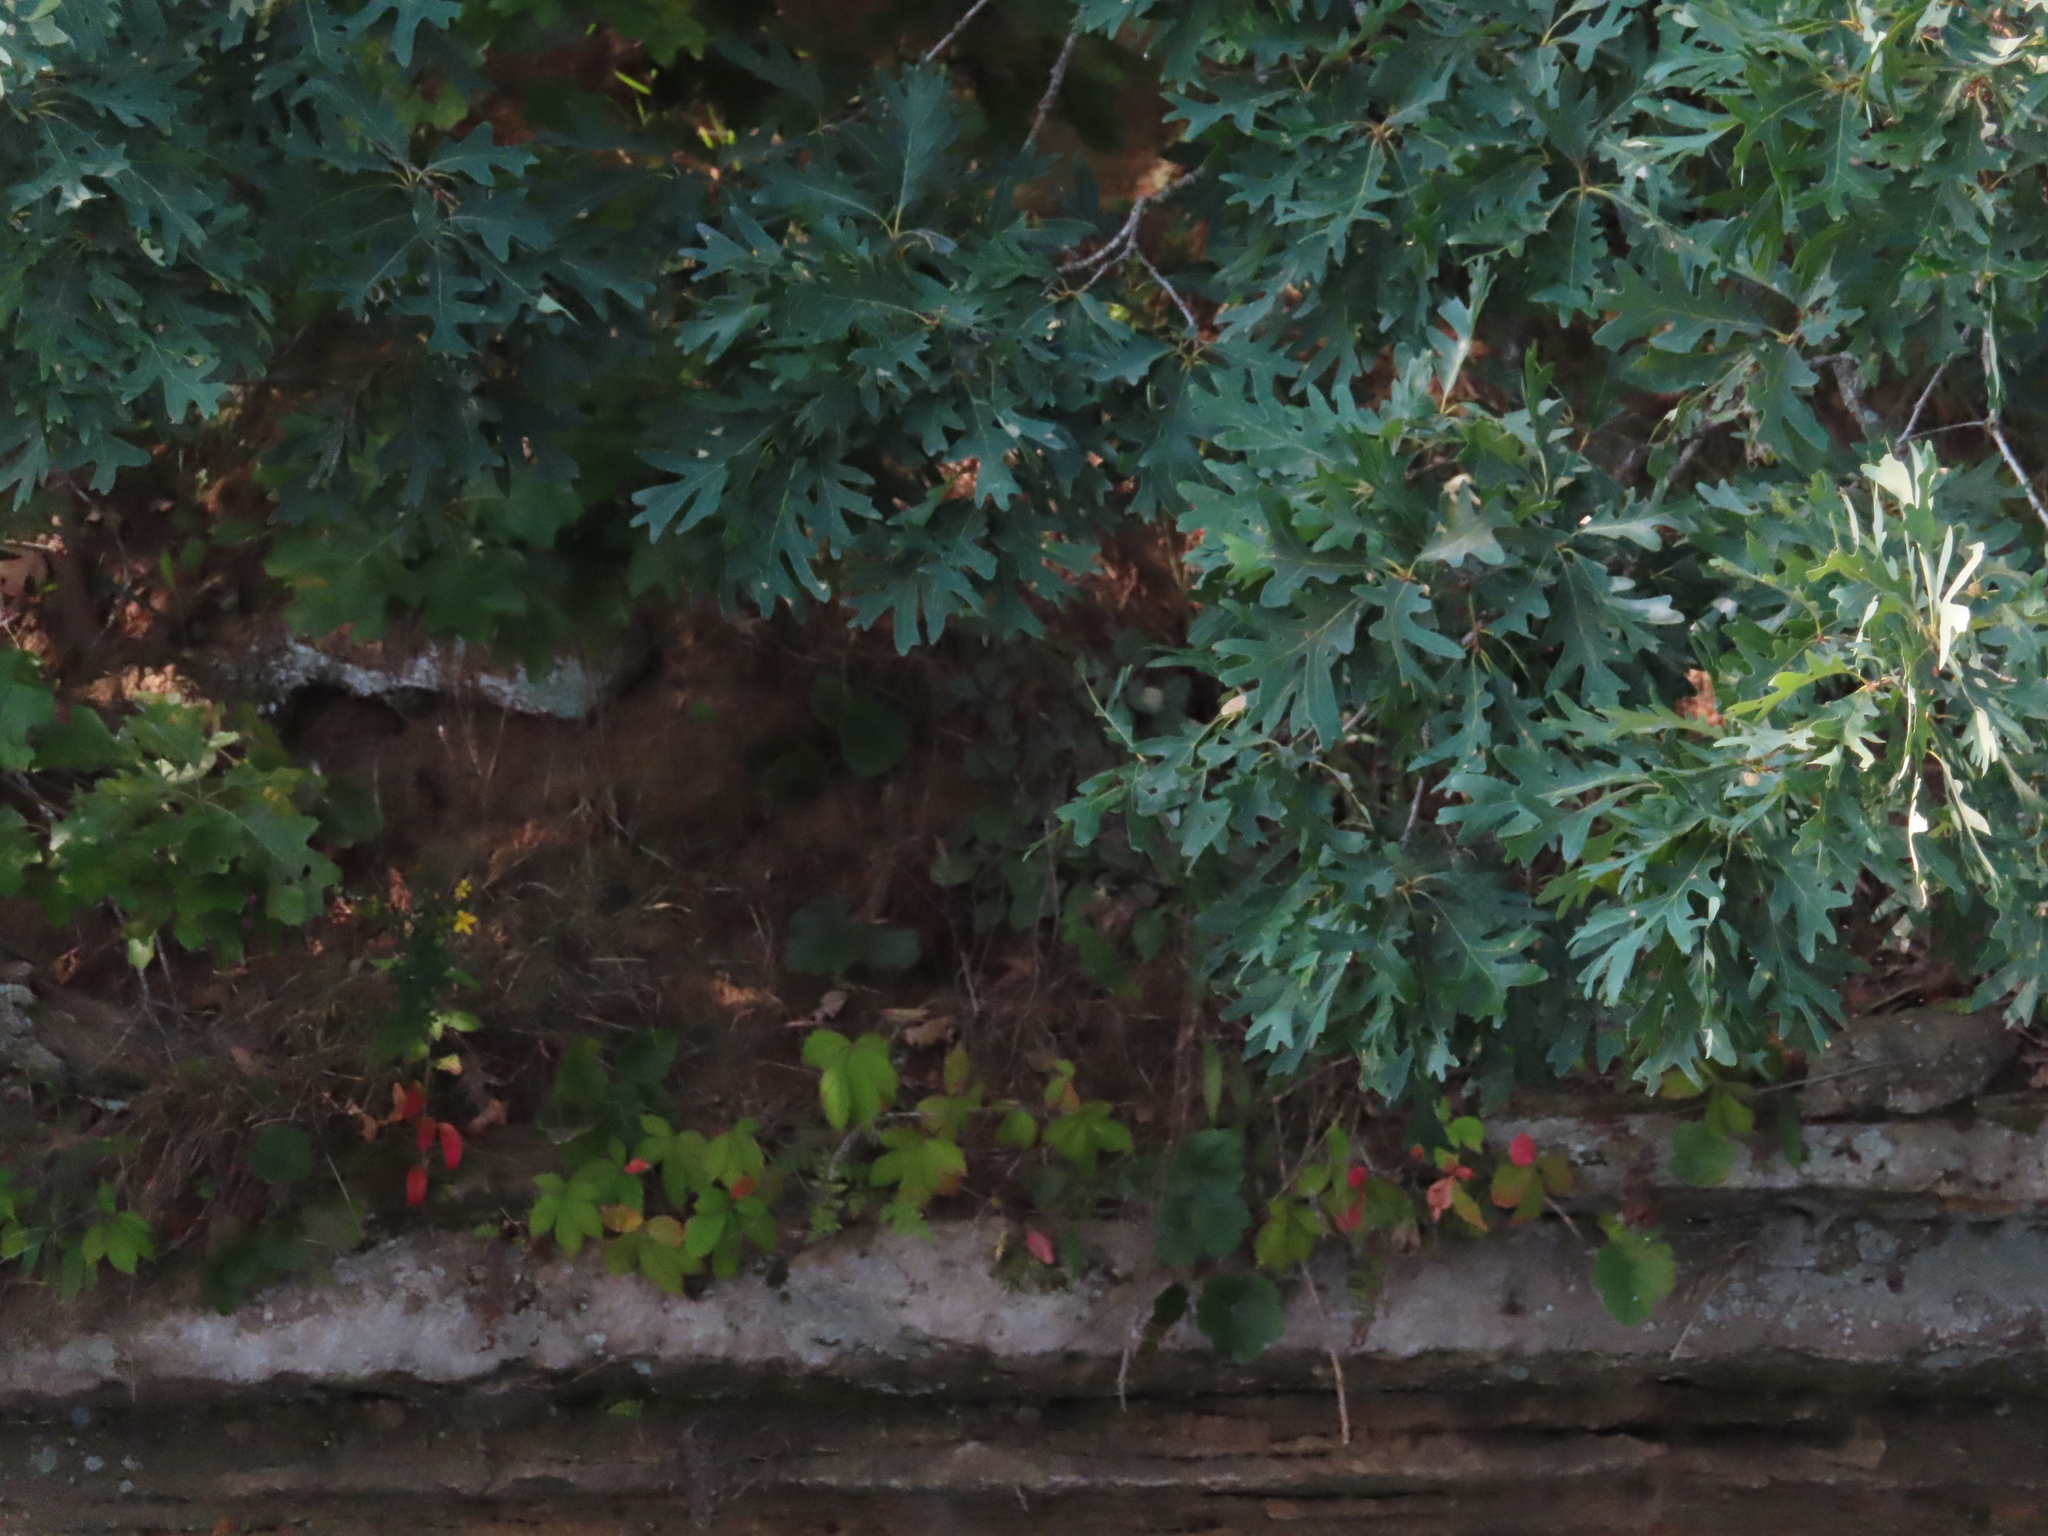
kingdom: Plantae
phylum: Tracheophyta
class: Magnoliopsida
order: Fagales
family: Fagaceae
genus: Quercus
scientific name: Quercus alba
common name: White oak
